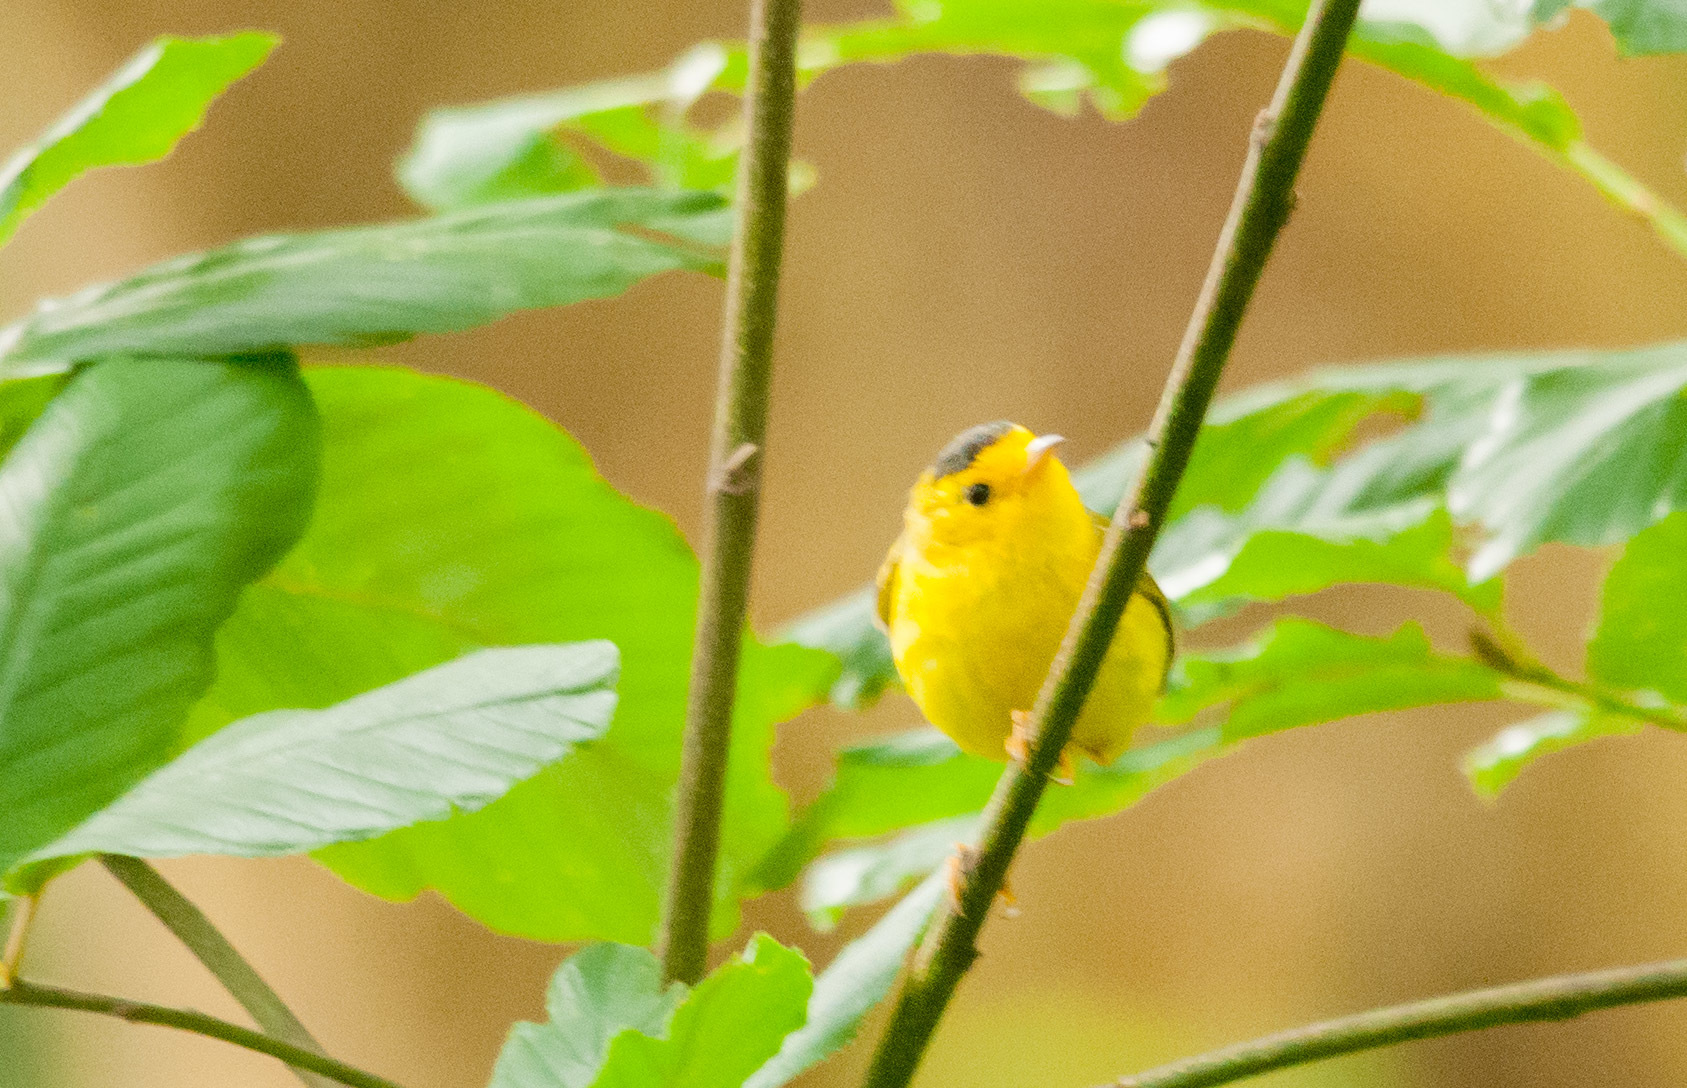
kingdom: Animalia
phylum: Chordata
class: Aves
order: Passeriformes
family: Parulidae
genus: Cardellina
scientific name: Cardellina pusilla
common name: Wilson's warbler
